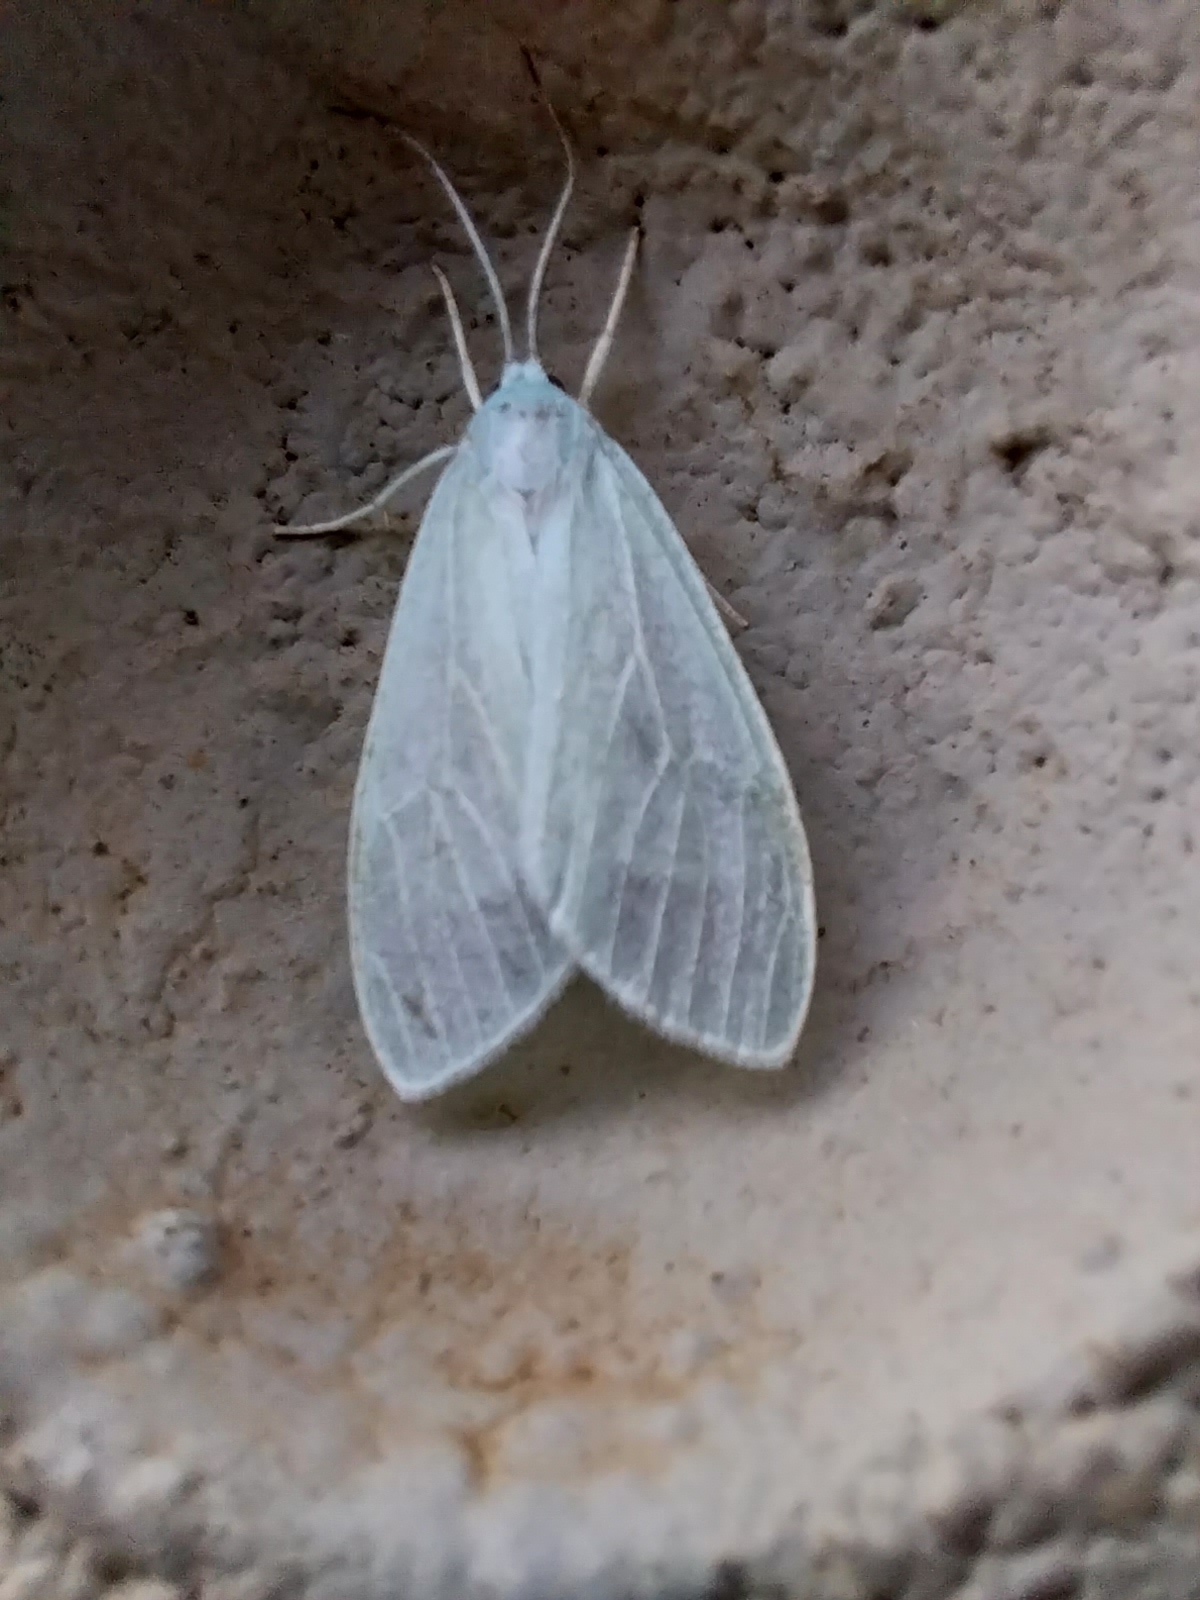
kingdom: Animalia
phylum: Arthropoda
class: Insecta
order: Lepidoptera
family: Erebidae
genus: Eucereon
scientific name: Eucereon vestalis
